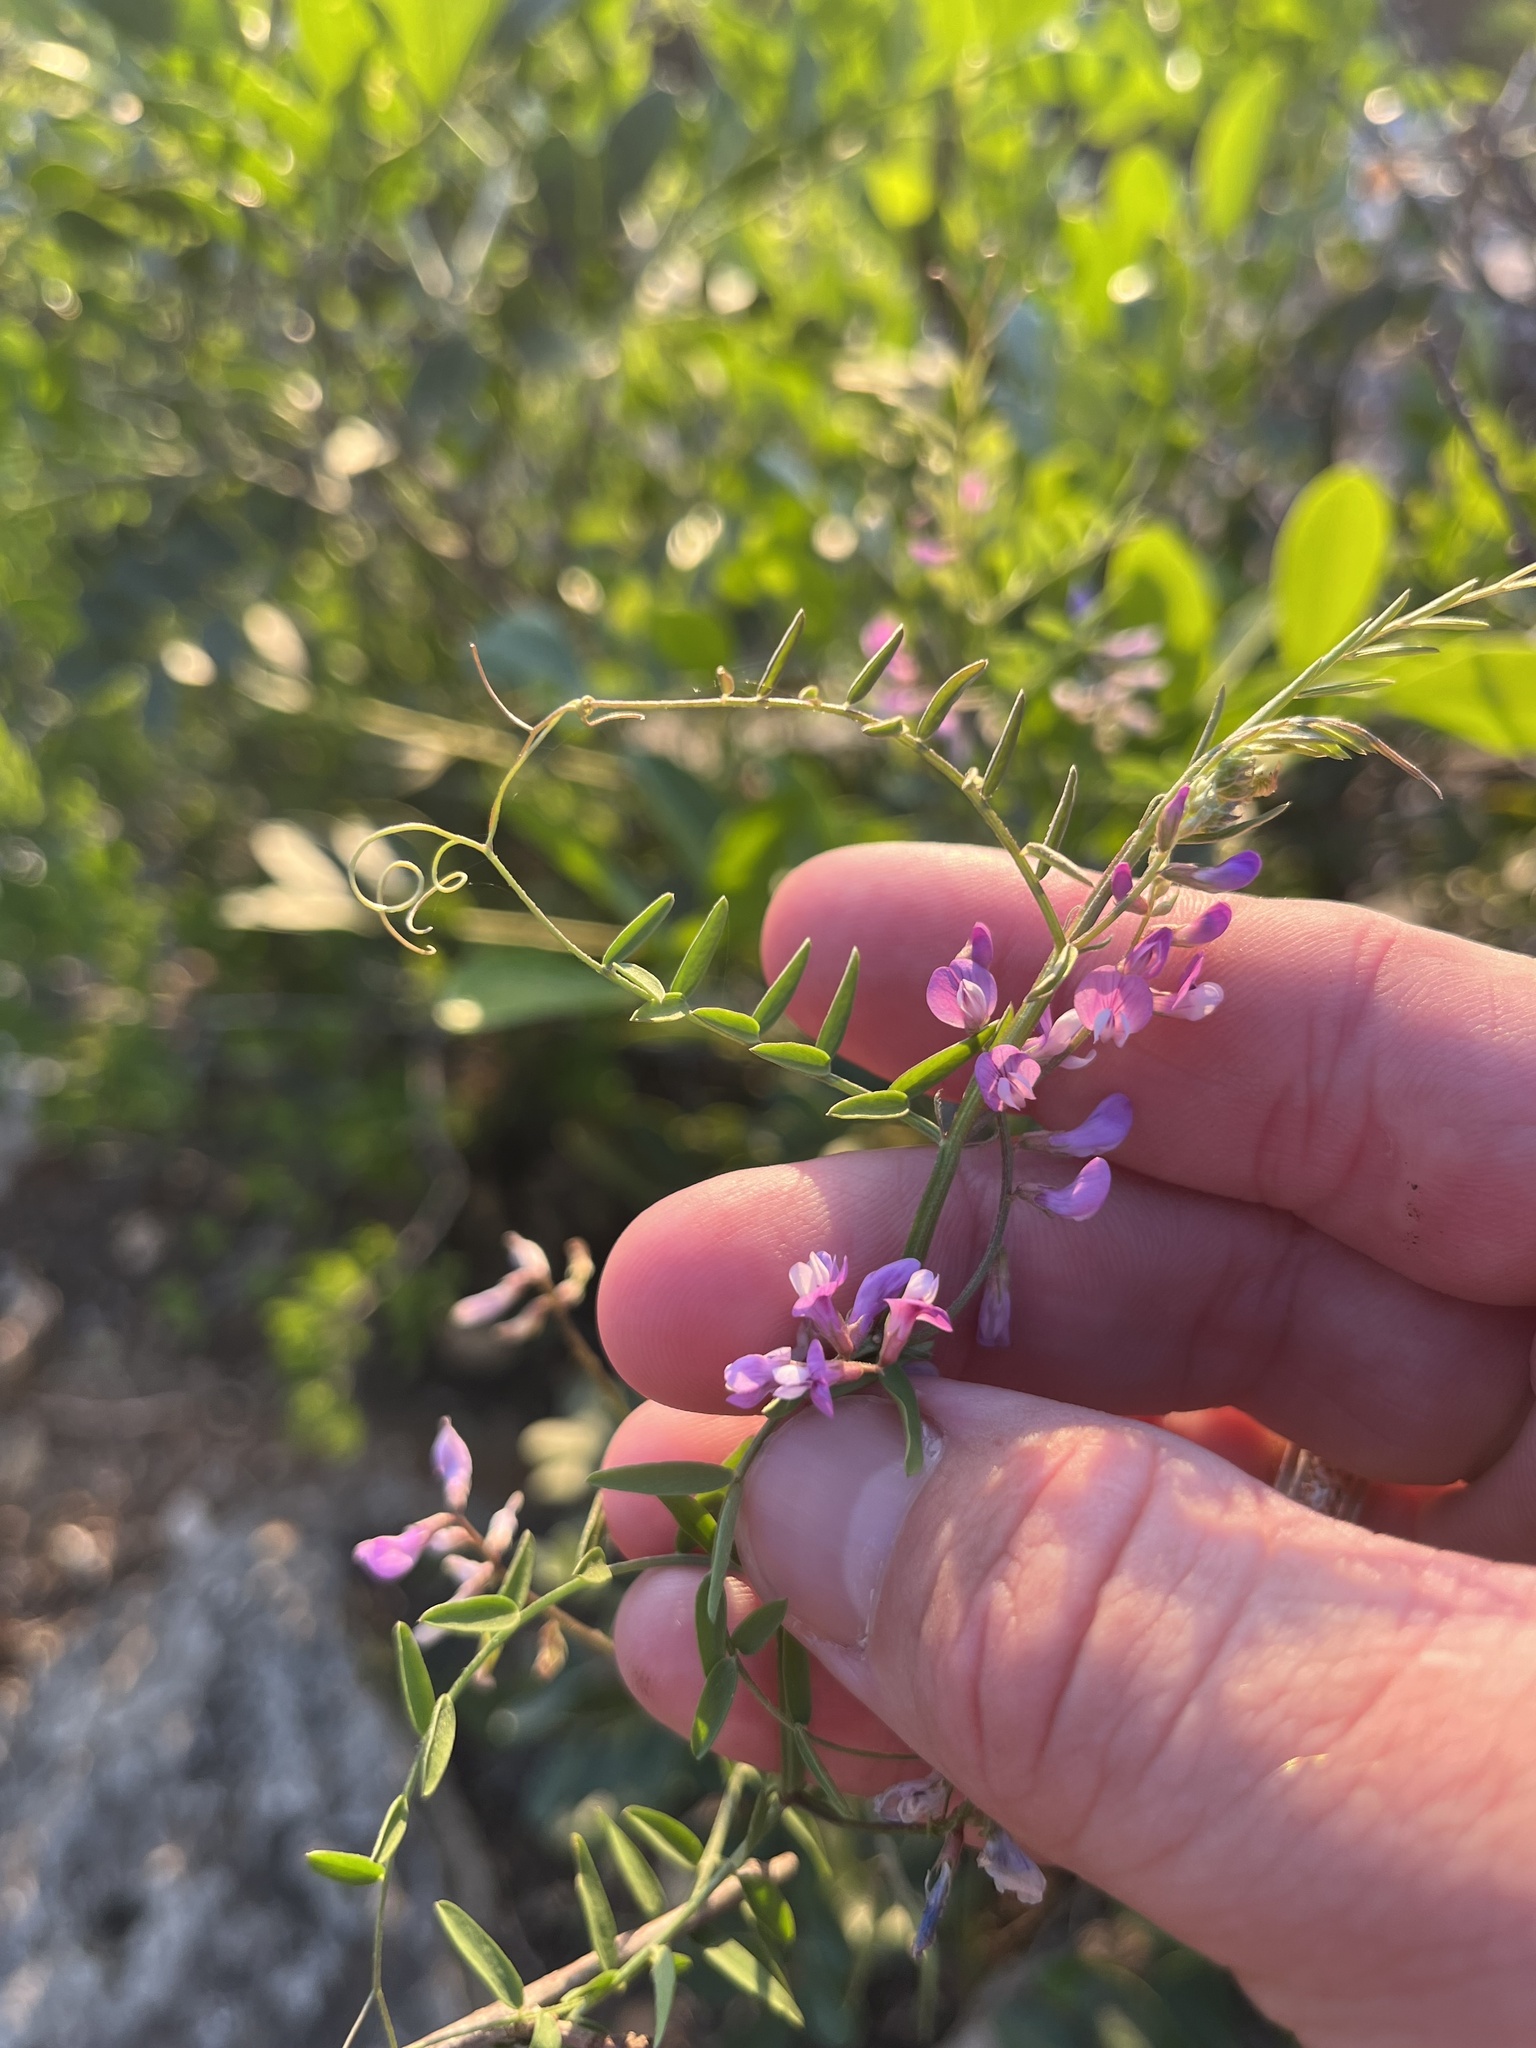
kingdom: Plantae
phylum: Tracheophyta
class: Magnoliopsida
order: Fabales
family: Fabaceae
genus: Vicia
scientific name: Vicia ludoviciana
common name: Louisiana vetch
